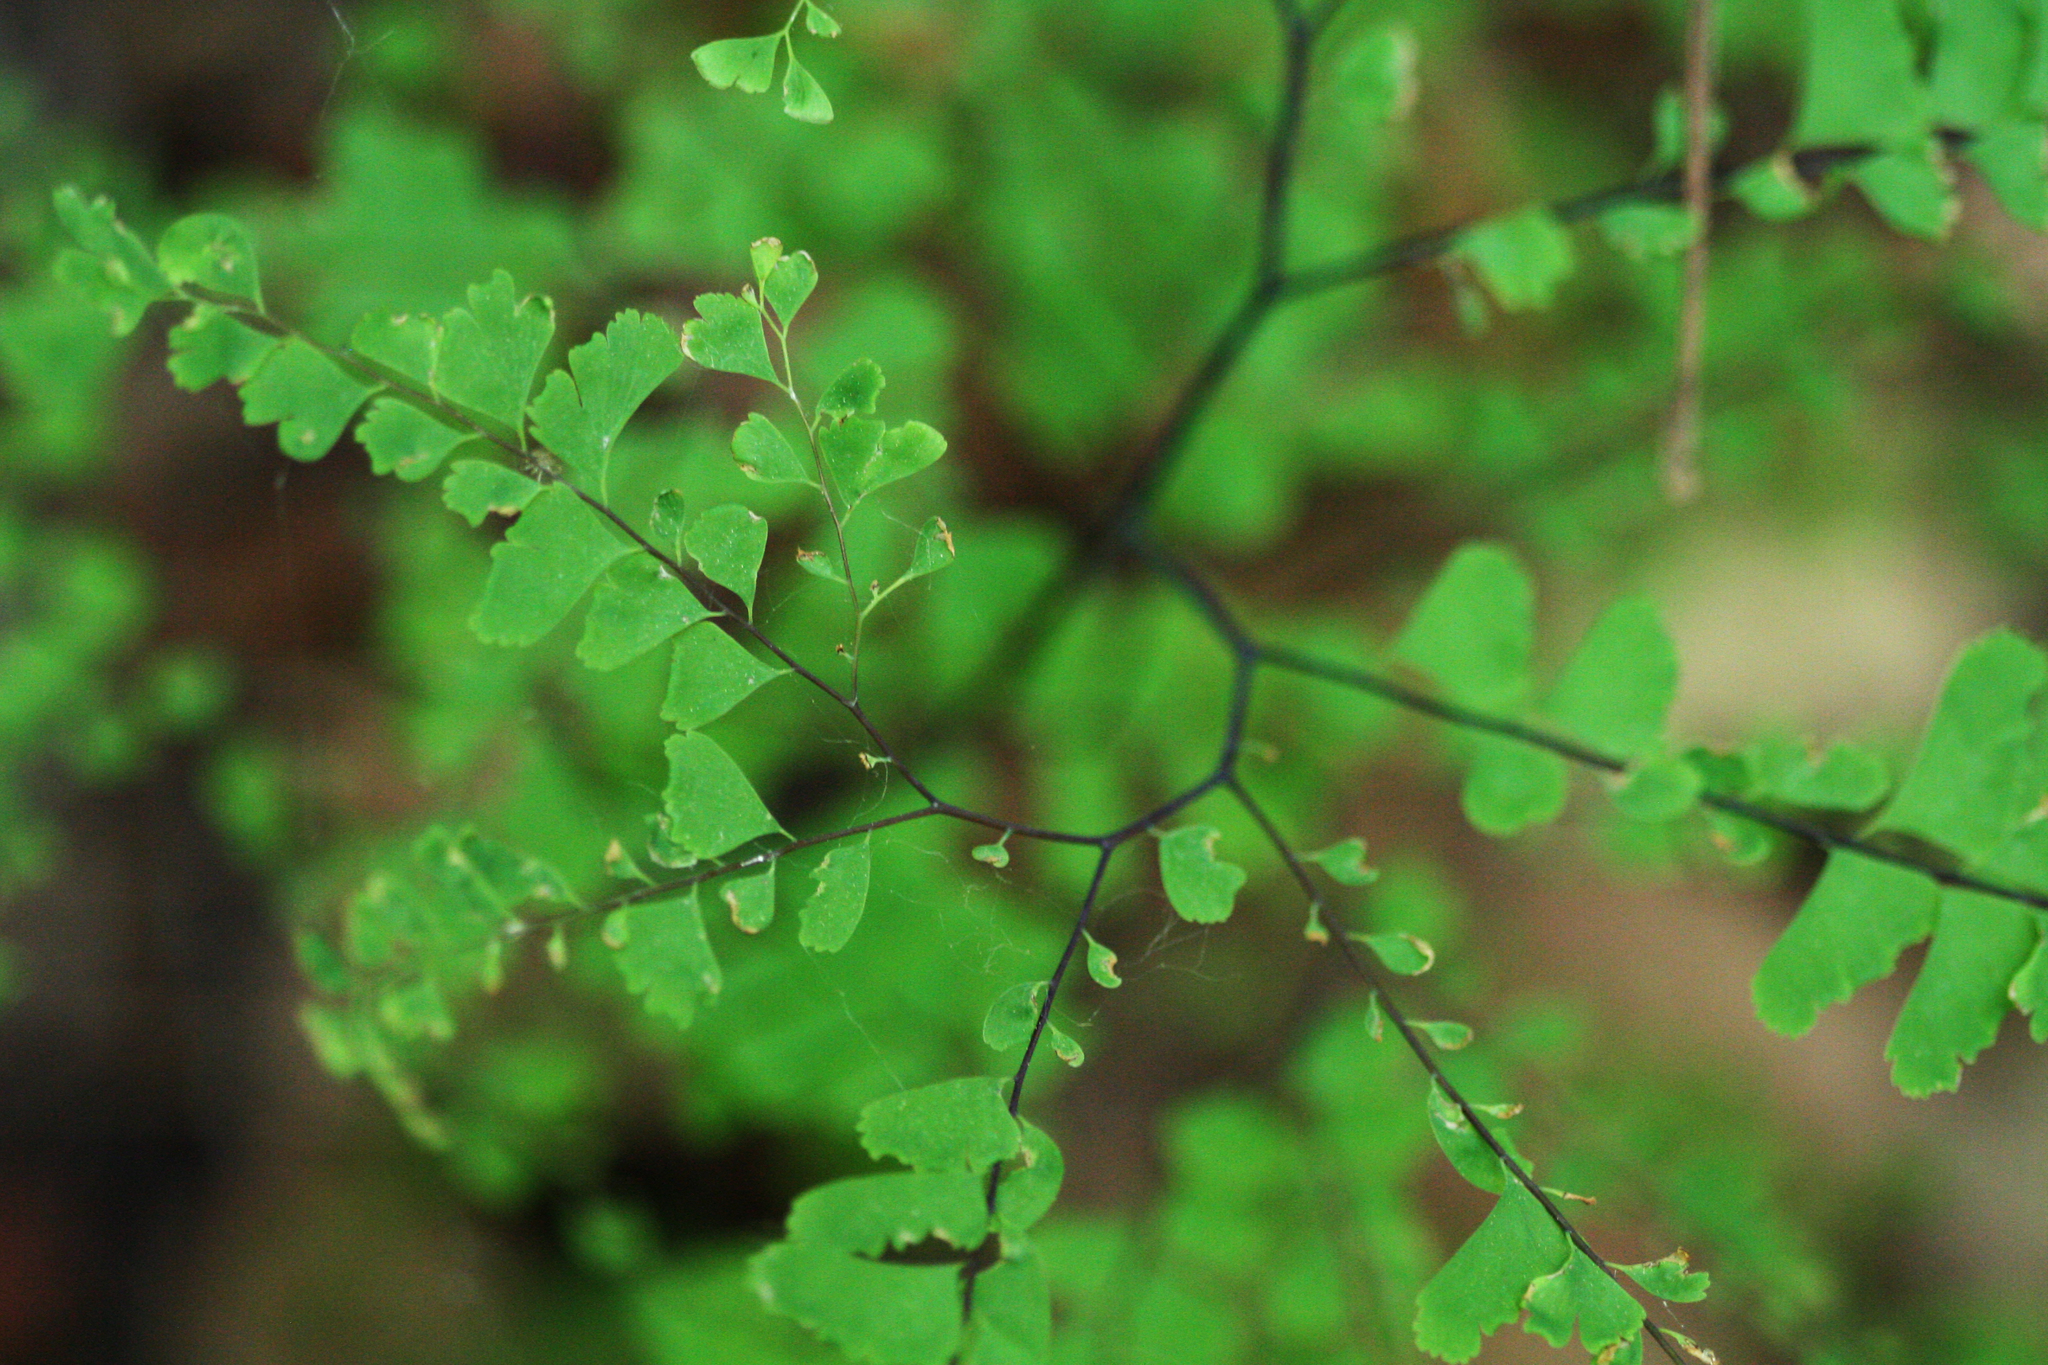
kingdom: Plantae
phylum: Tracheophyta
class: Polypodiopsida
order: Polypodiales
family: Pteridaceae
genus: Adiantum
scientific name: Adiantum pedatum
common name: Five-finger fern
